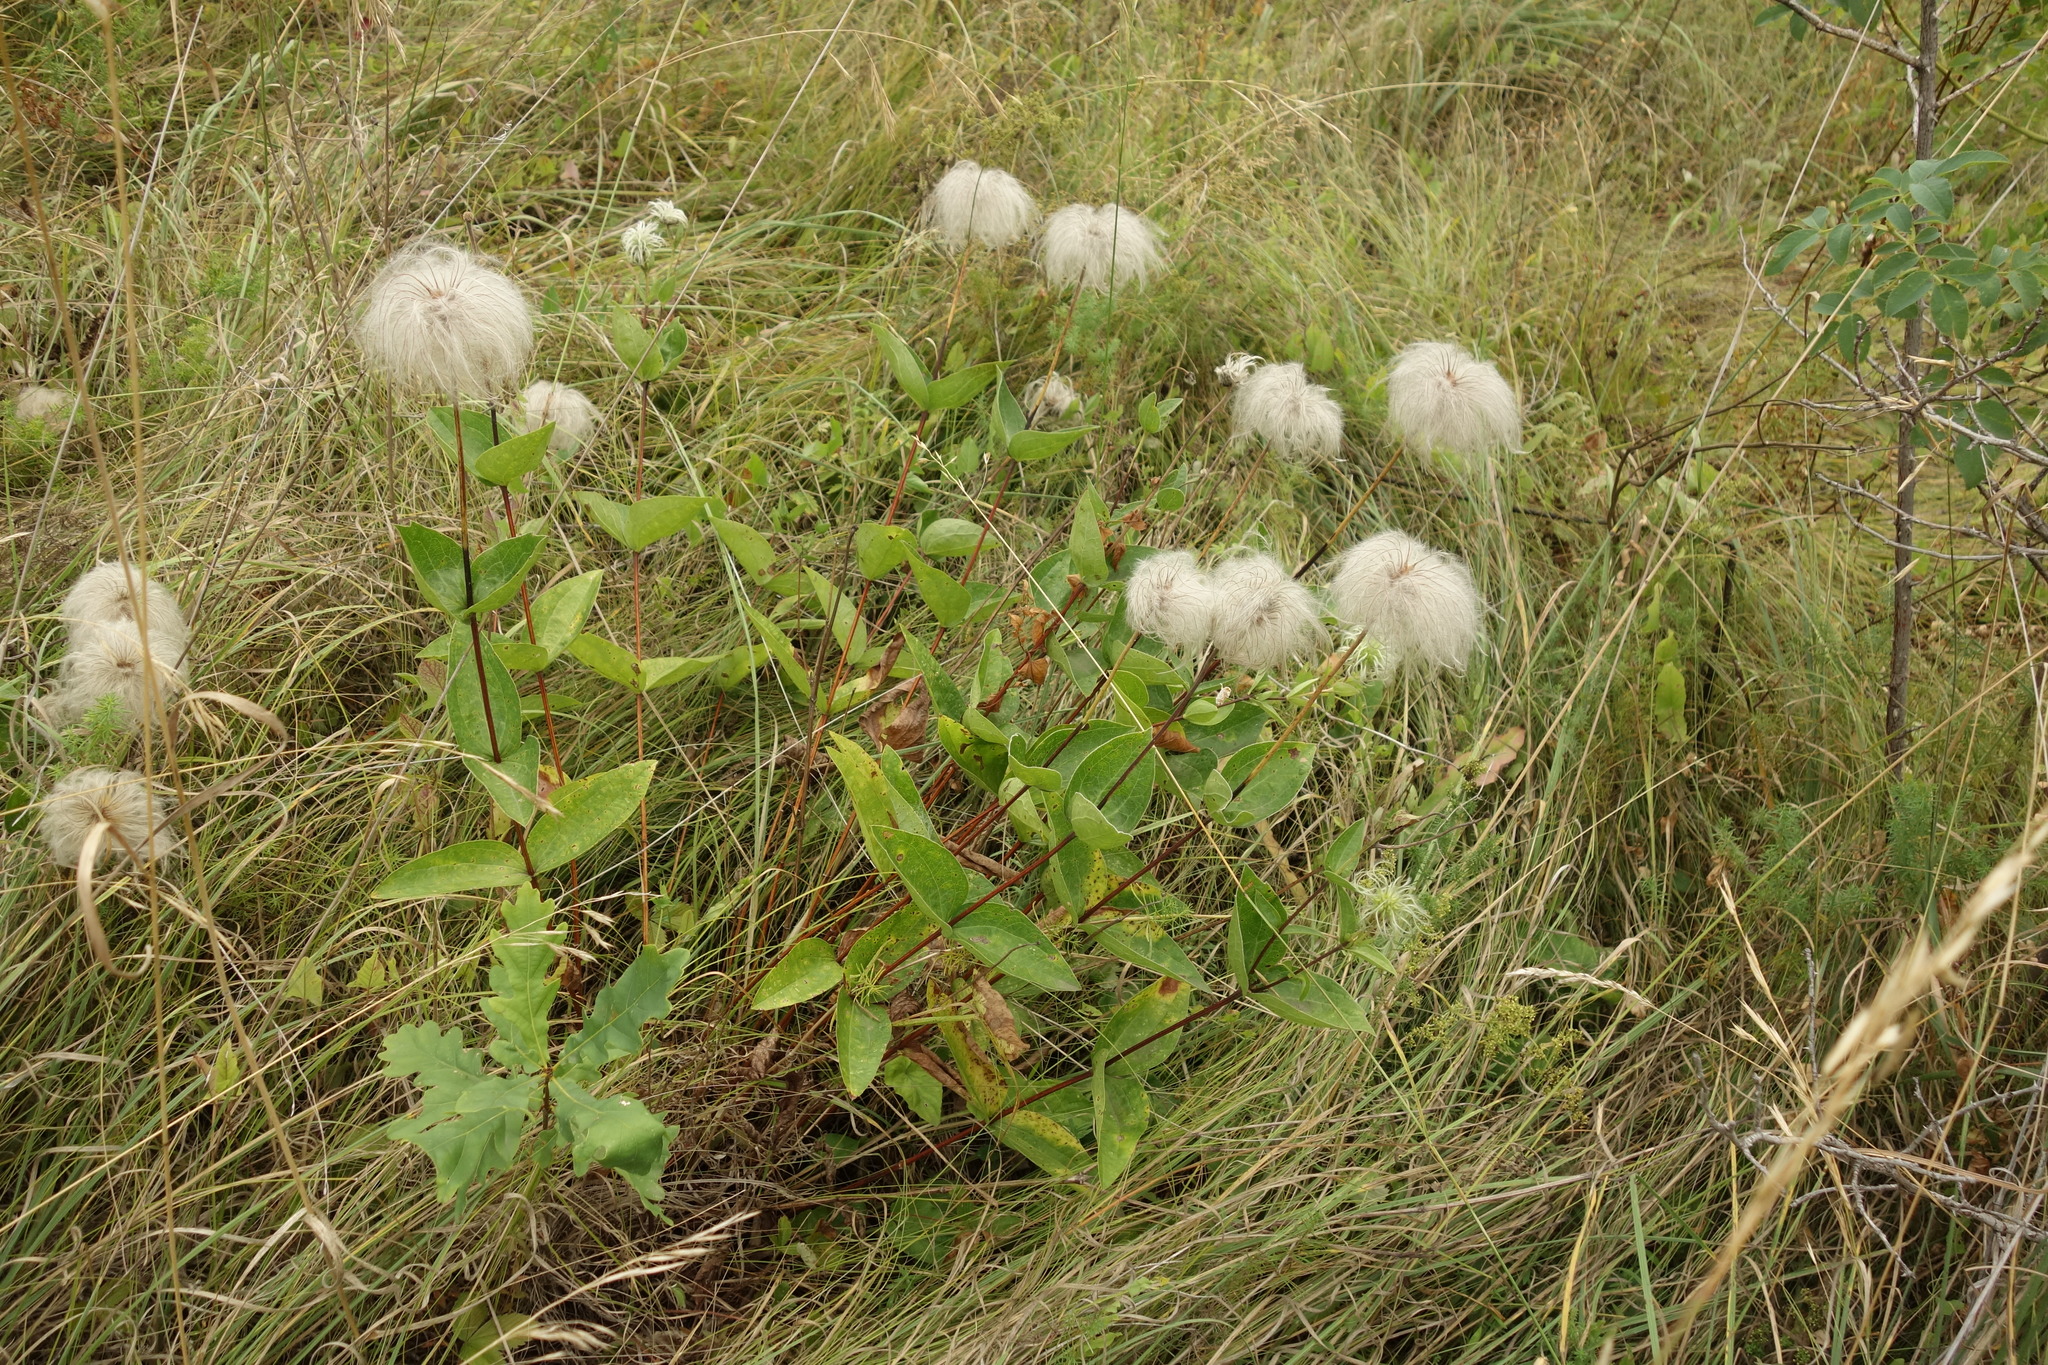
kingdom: Plantae
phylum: Tracheophyta
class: Magnoliopsida
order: Ranunculales
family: Ranunculaceae
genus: Clematis
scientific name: Clematis integrifolia
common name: Solitary clematis
